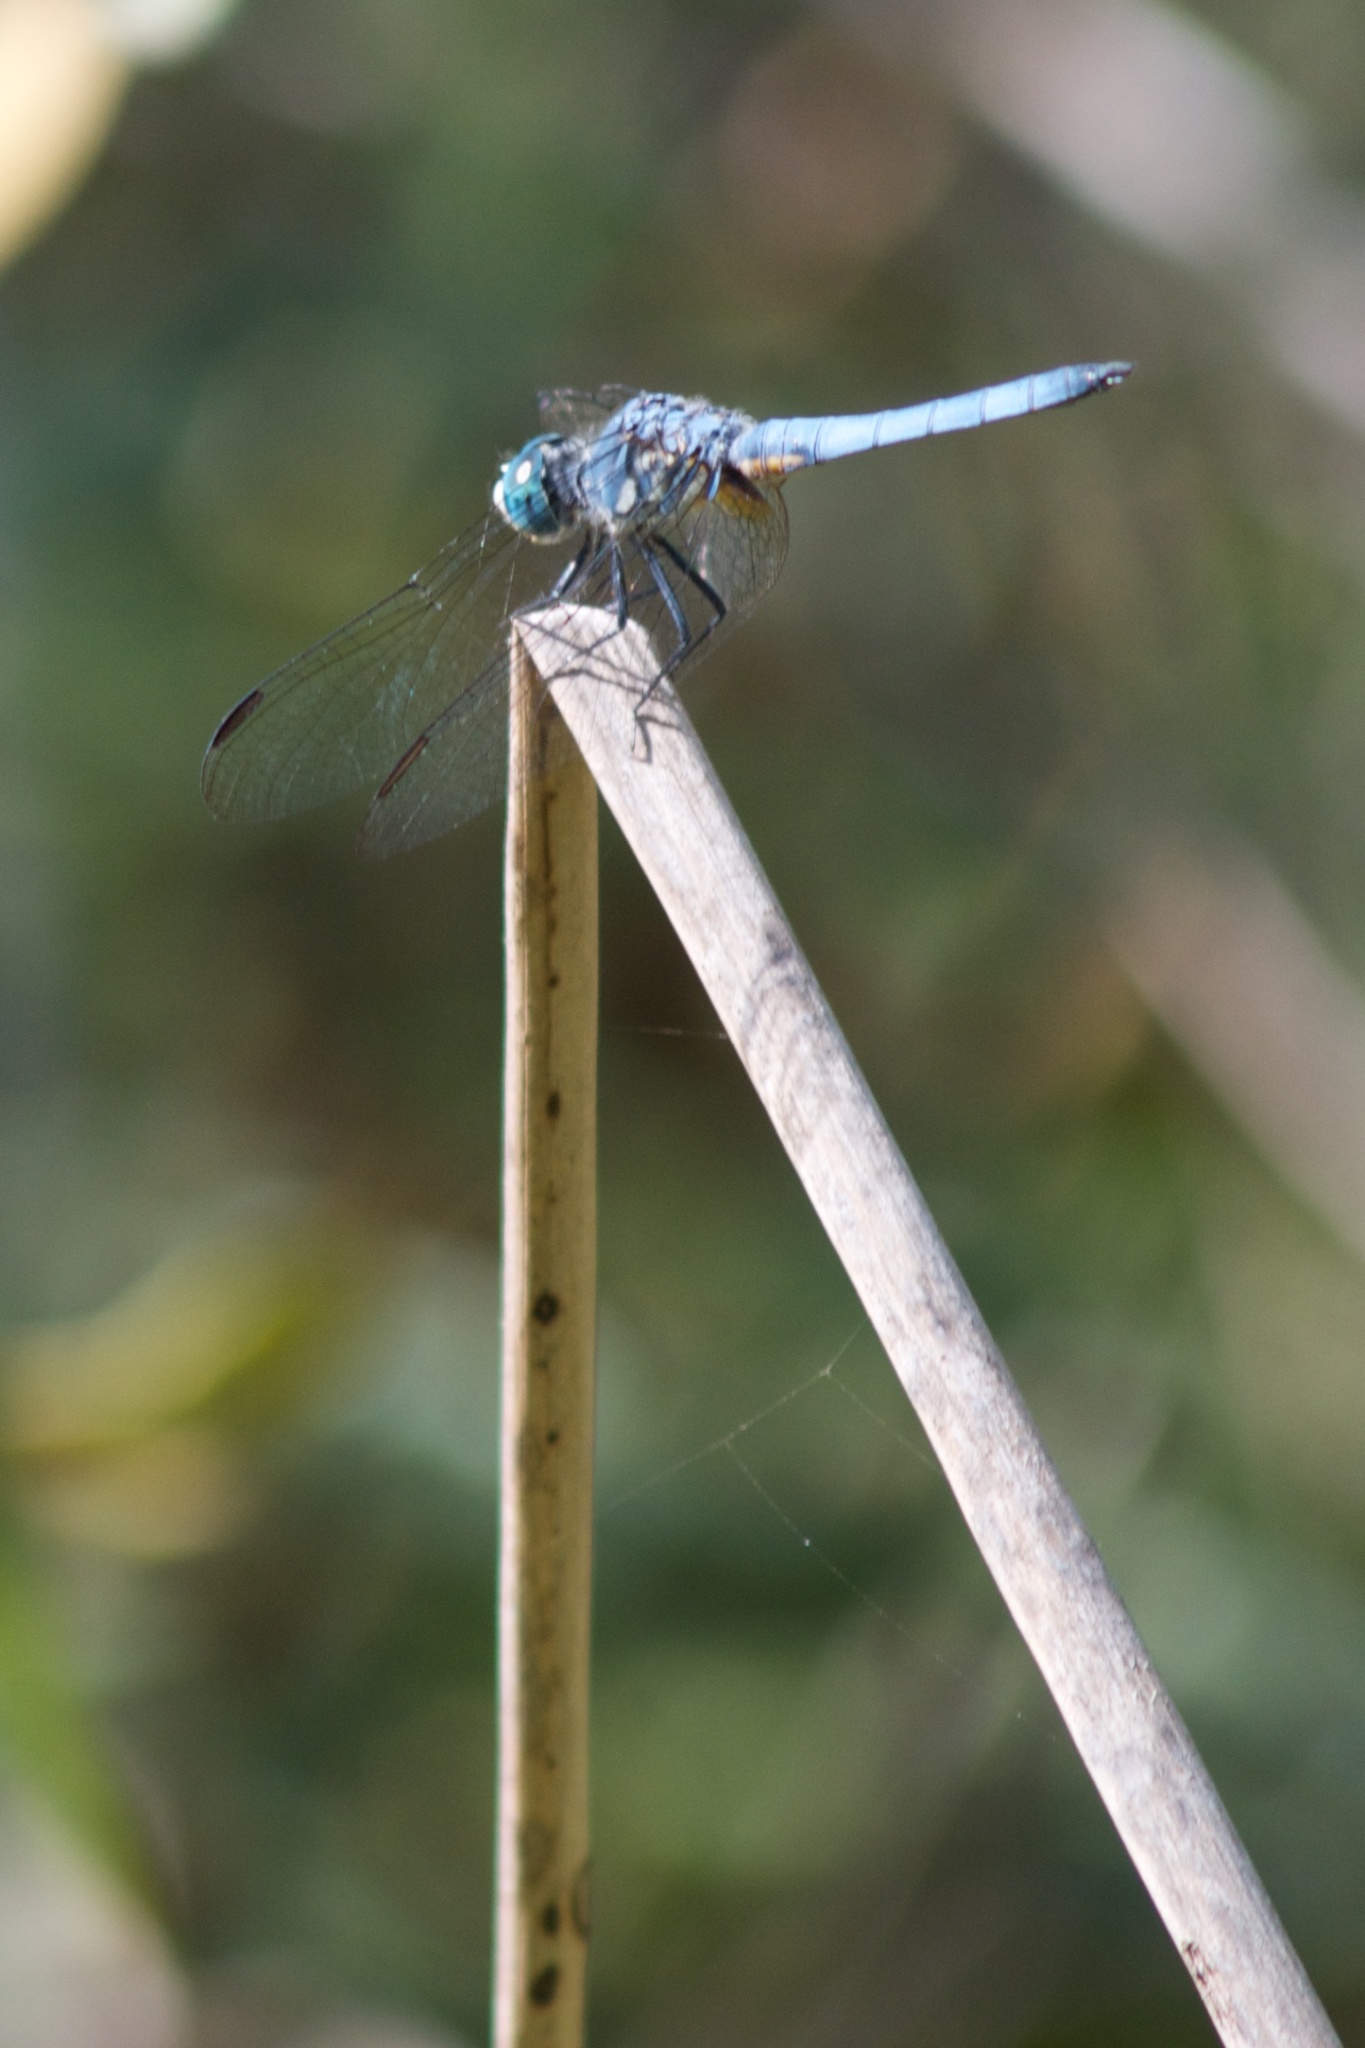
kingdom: Animalia
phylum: Arthropoda
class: Insecta
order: Odonata
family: Libellulidae
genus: Pachydiplax
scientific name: Pachydiplax longipennis
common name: Blue dasher
